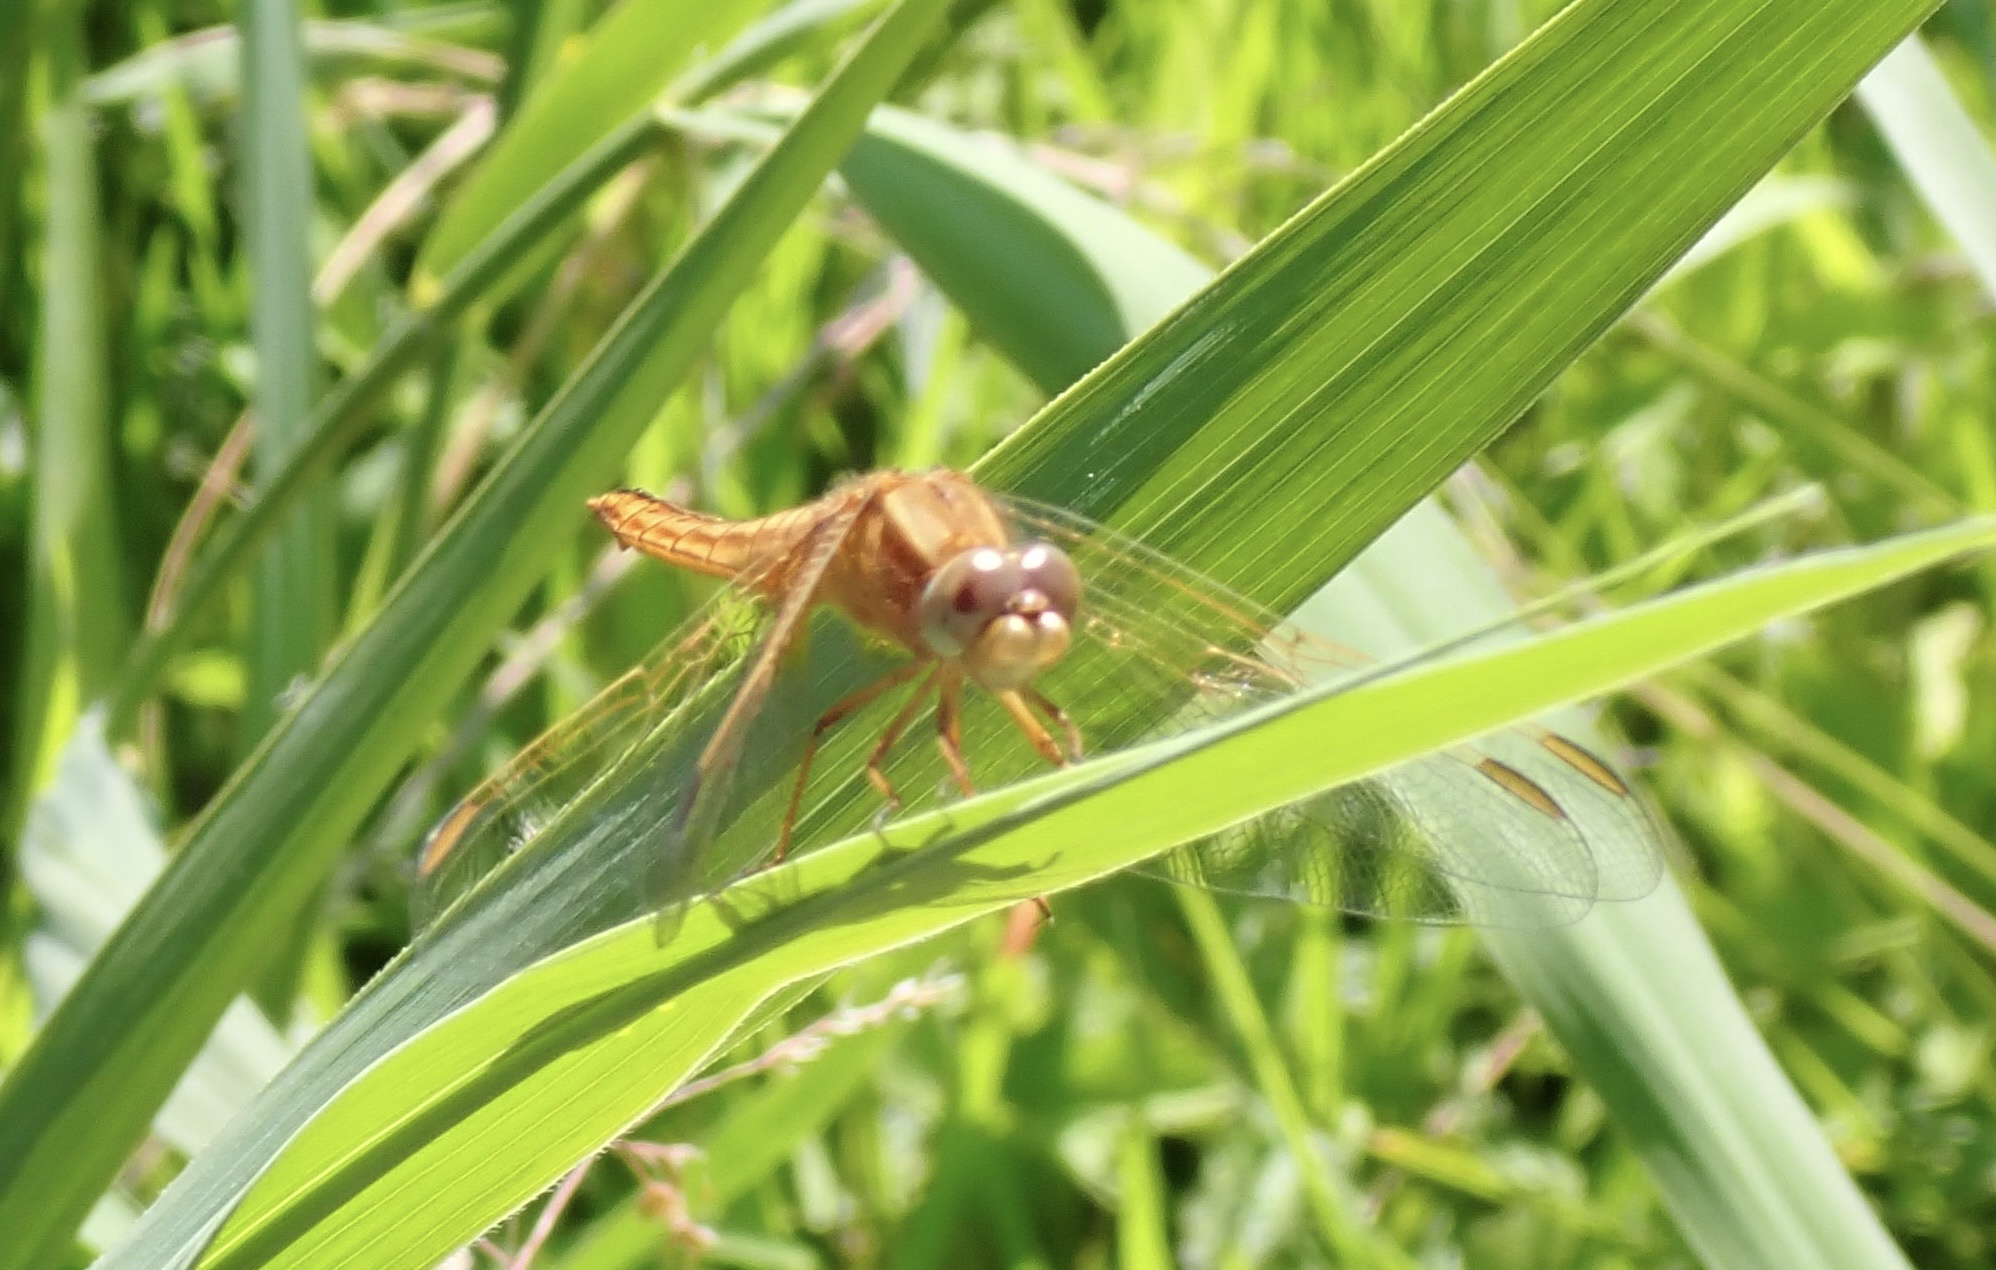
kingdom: Animalia
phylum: Arthropoda
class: Insecta
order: Odonata
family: Libellulidae
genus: Crocothemis
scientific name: Crocothemis erythraea
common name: Scarlet dragonfly
